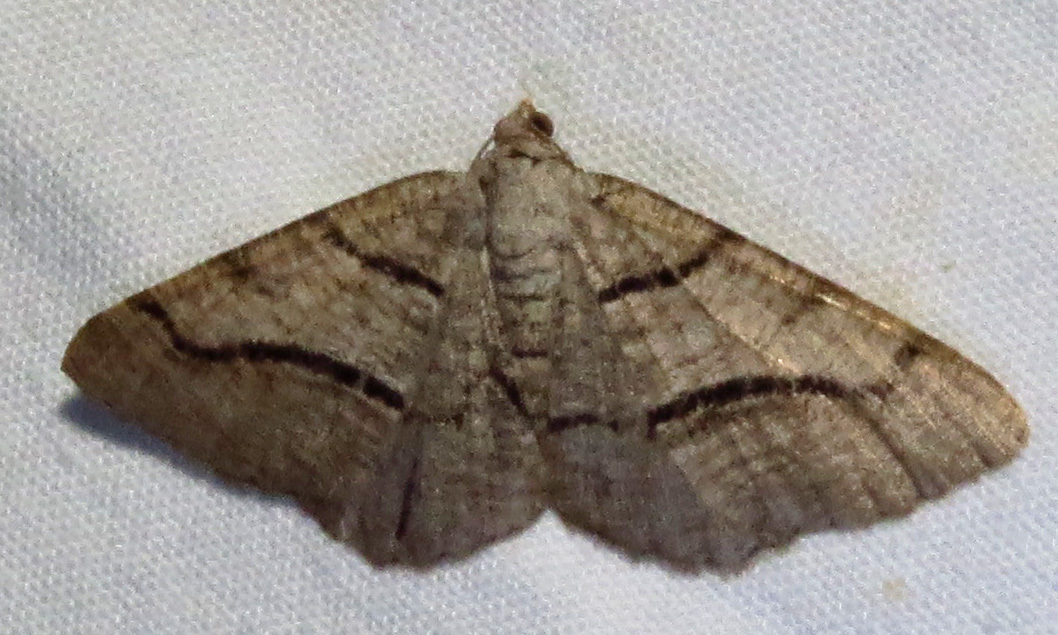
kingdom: Animalia
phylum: Arthropoda
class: Insecta
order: Lepidoptera
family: Geometridae
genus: Digrammia
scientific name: Digrammia continuata
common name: Curve-lined angle
